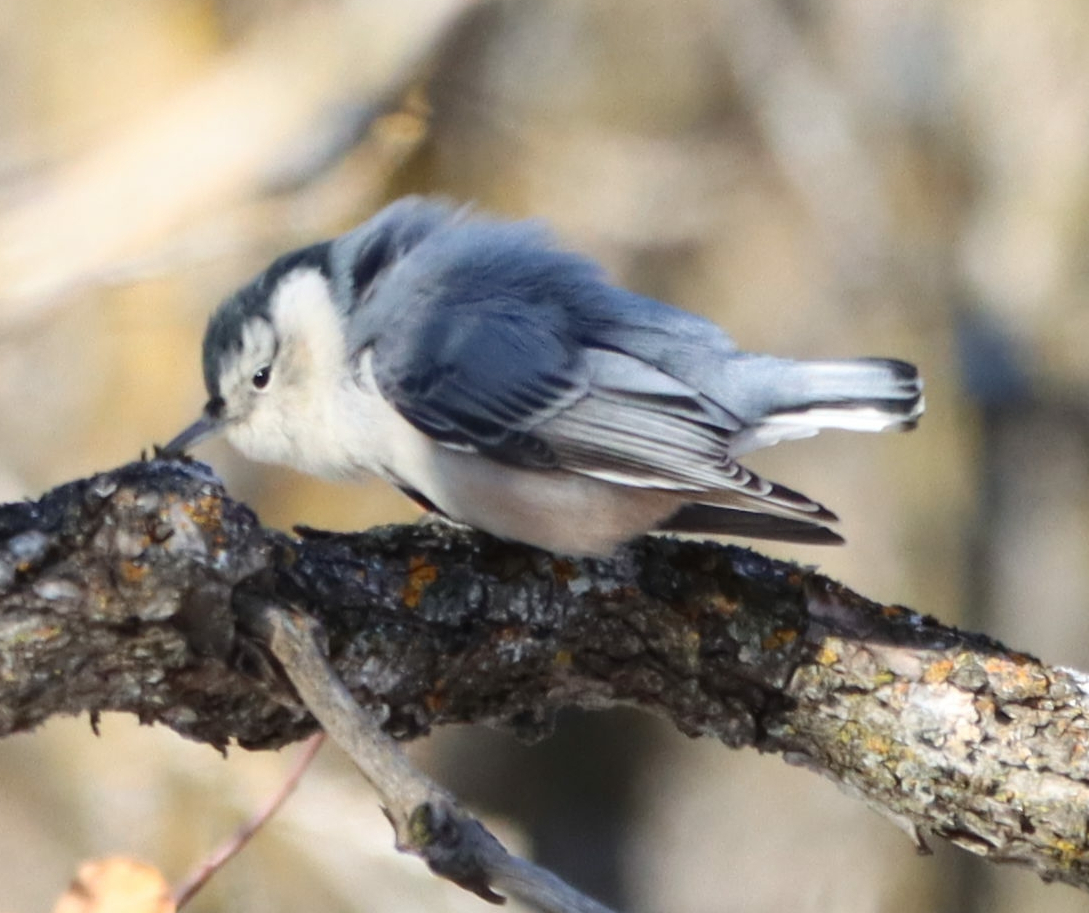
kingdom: Animalia
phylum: Chordata
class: Aves
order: Passeriformes
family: Sittidae
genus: Sitta
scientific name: Sitta carolinensis
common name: White-breasted nuthatch
